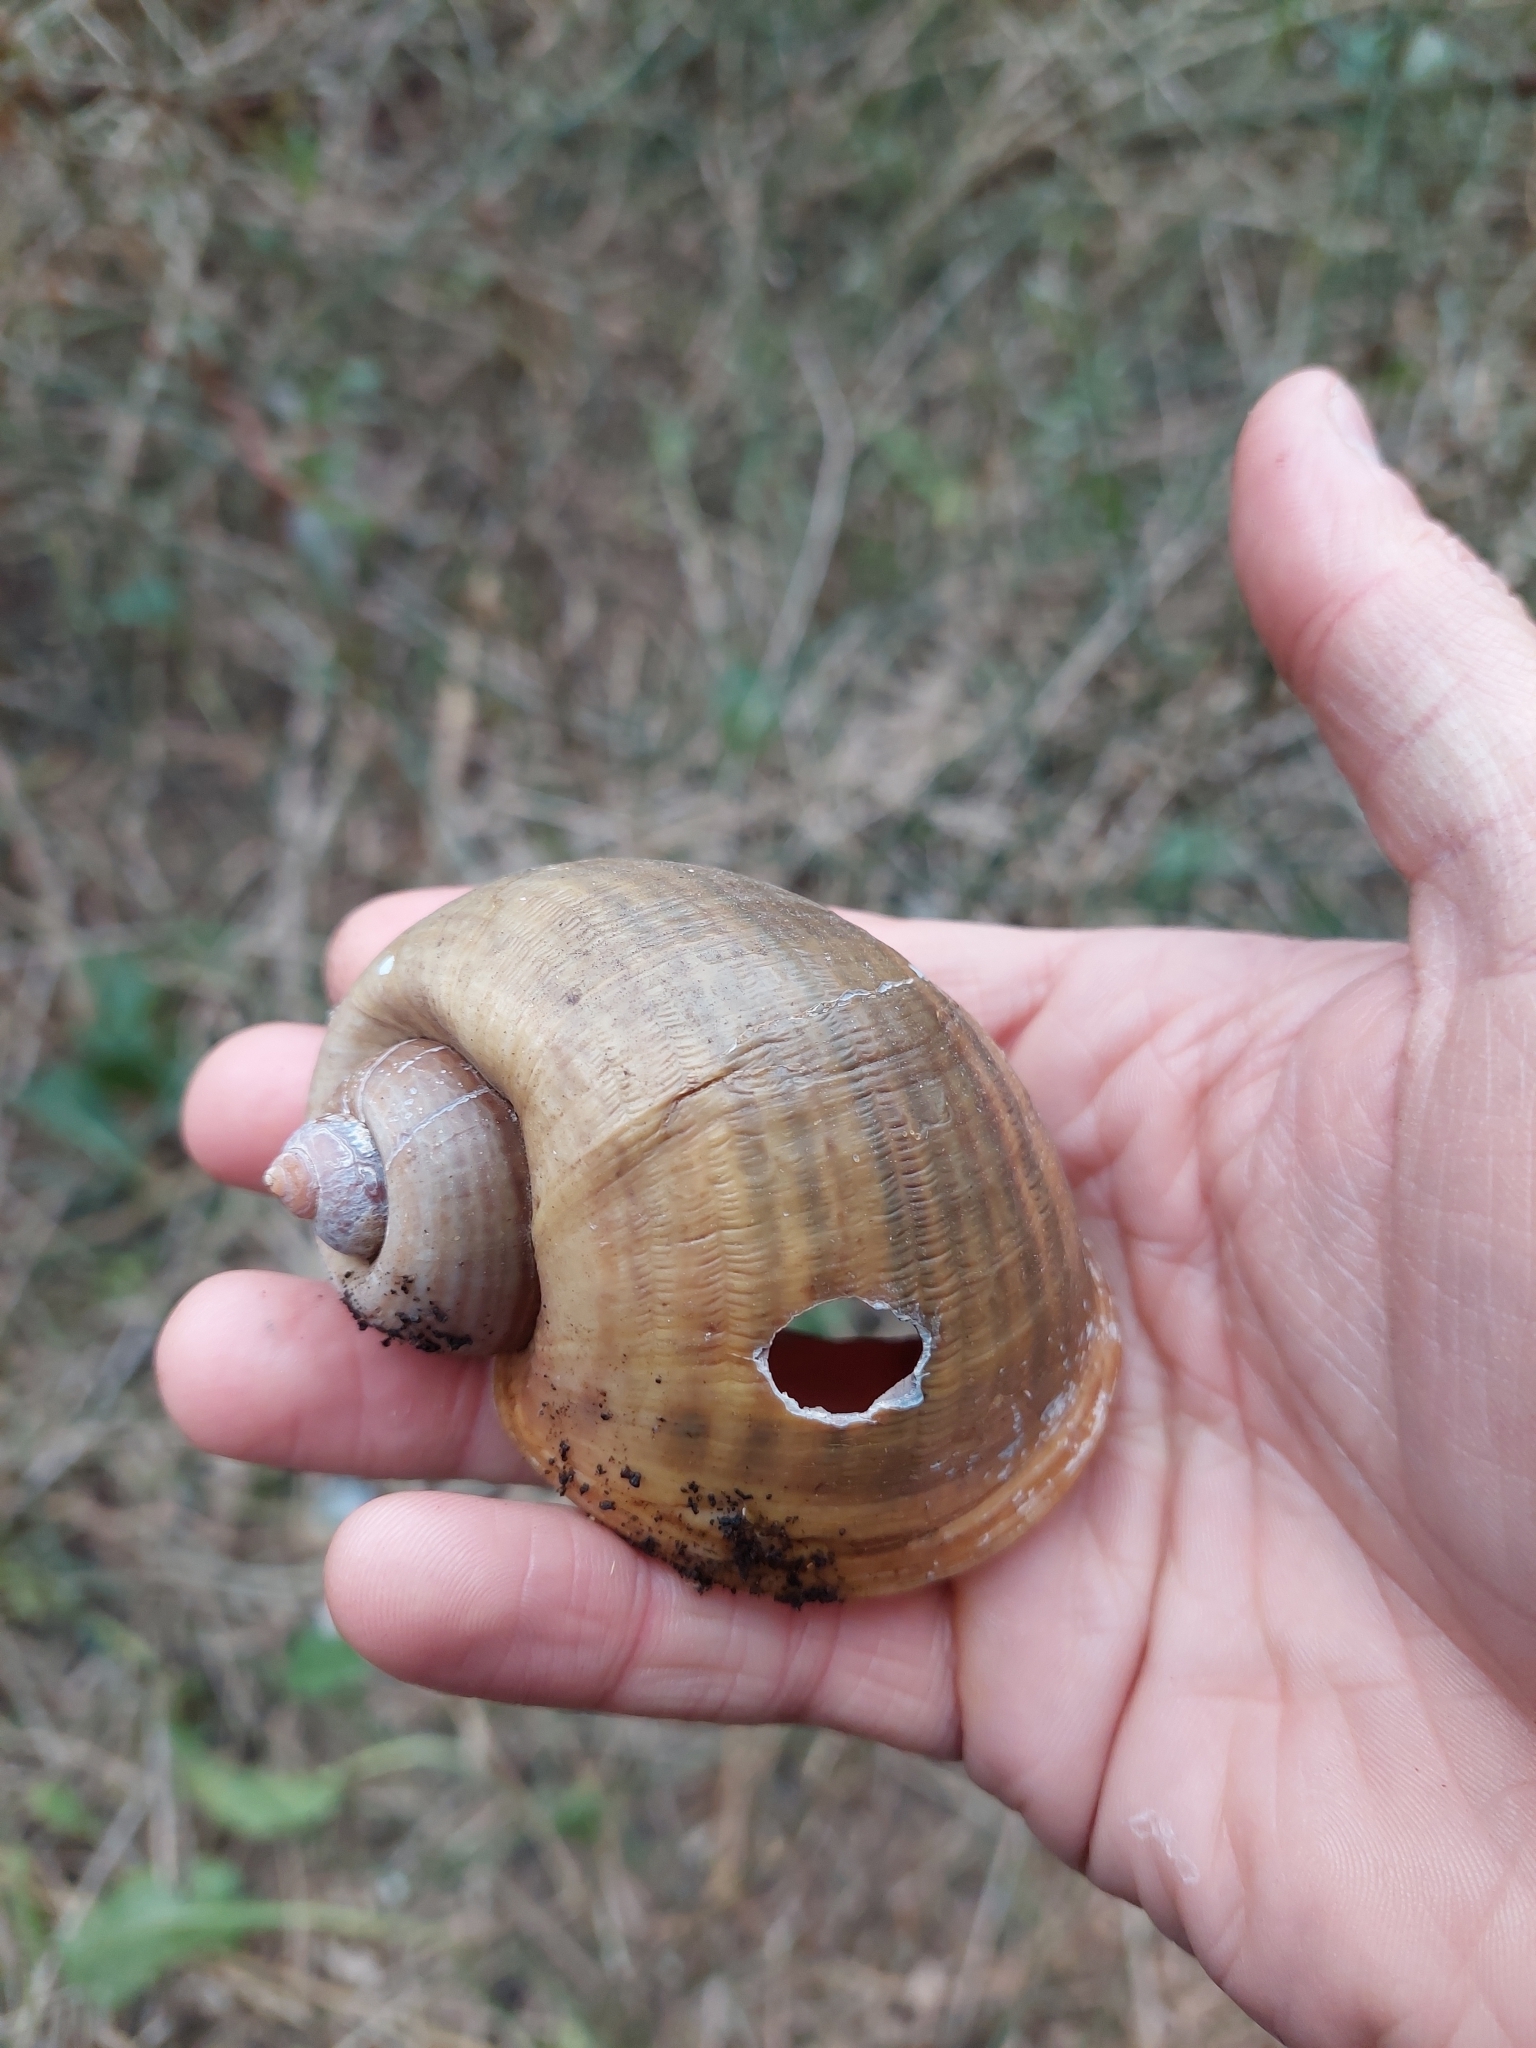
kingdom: Animalia
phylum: Mollusca
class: Gastropoda
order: Architaenioglossa
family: Ampullariidae
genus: Pomacea
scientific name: Pomacea canaliculata
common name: Channeled applesnail
